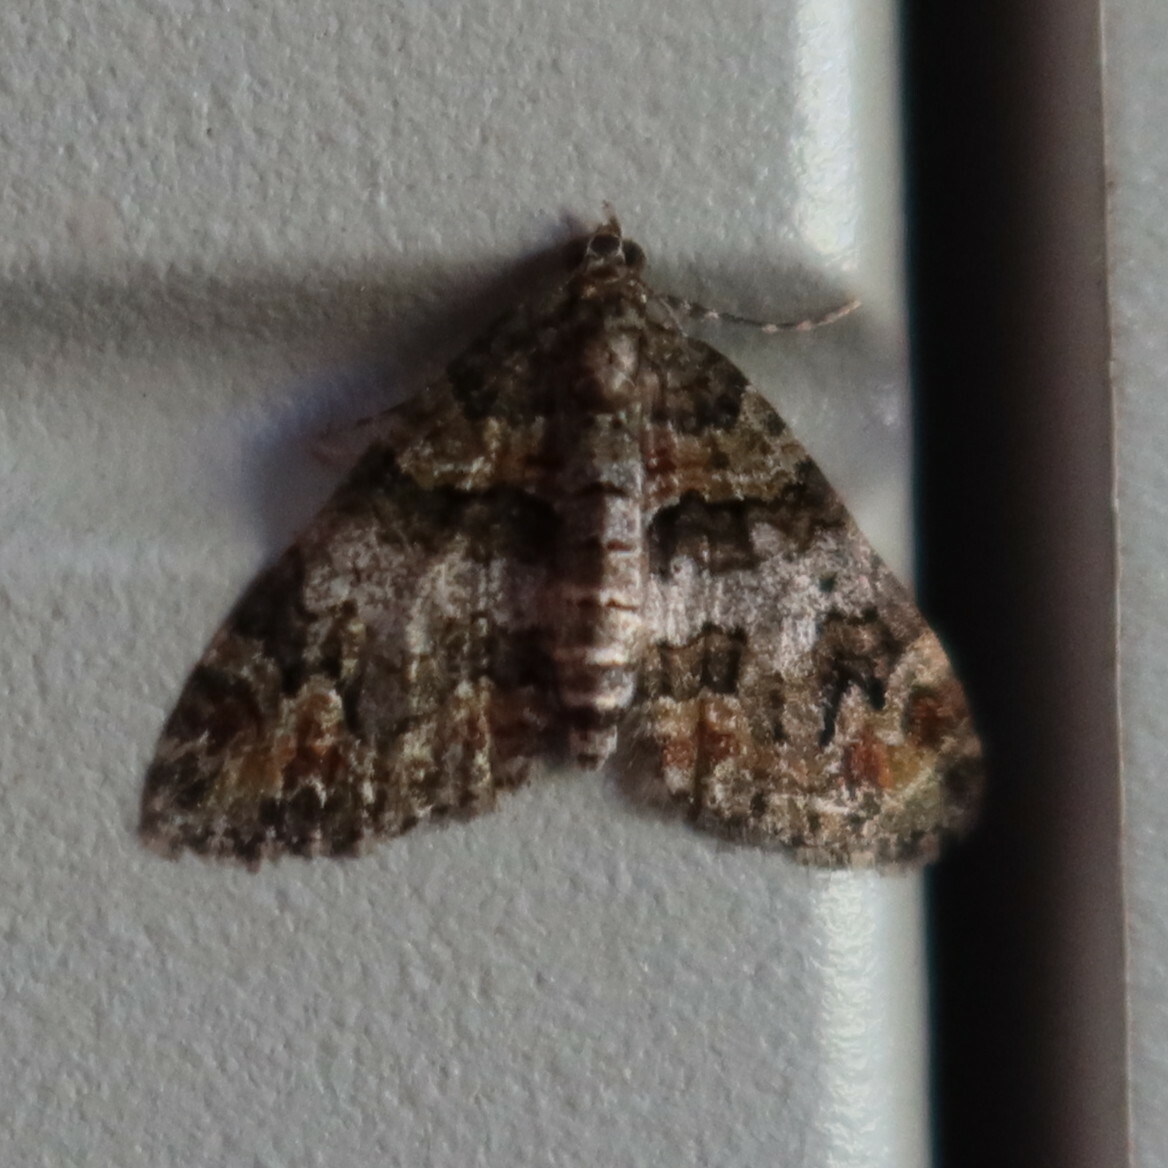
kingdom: Animalia
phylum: Arthropoda
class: Insecta
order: Lepidoptera
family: Geometridae
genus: Piercia
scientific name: Piercia prasinaria
